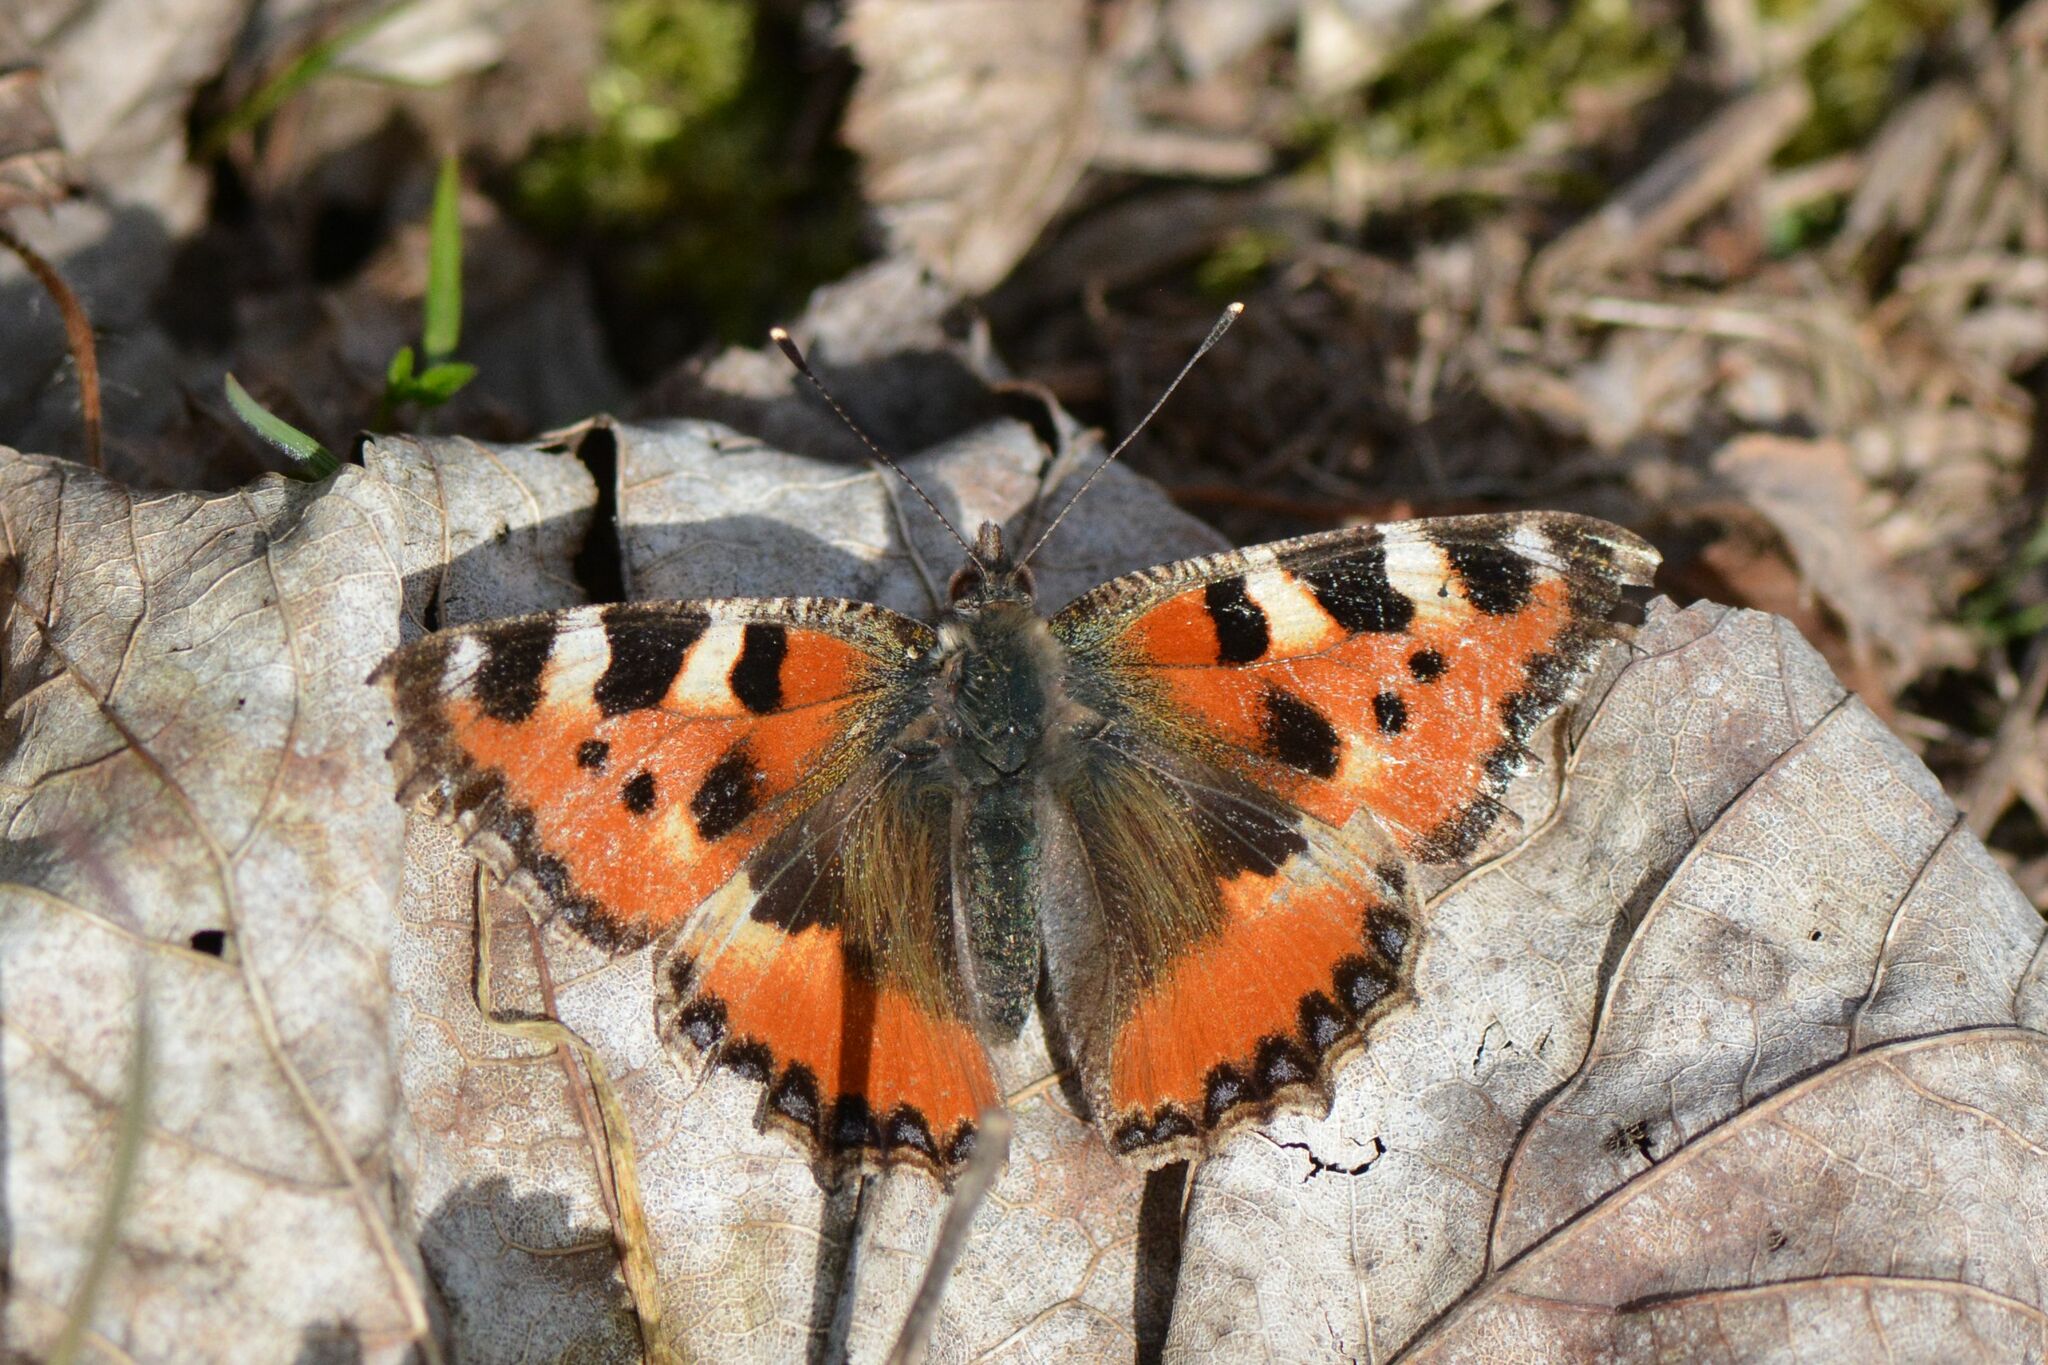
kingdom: Animalia
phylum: Arthropoda
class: Insecta
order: Lepidoptera
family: Nymphalidae
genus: Aglais
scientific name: Aglais urticae
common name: Small tortoiseshell
